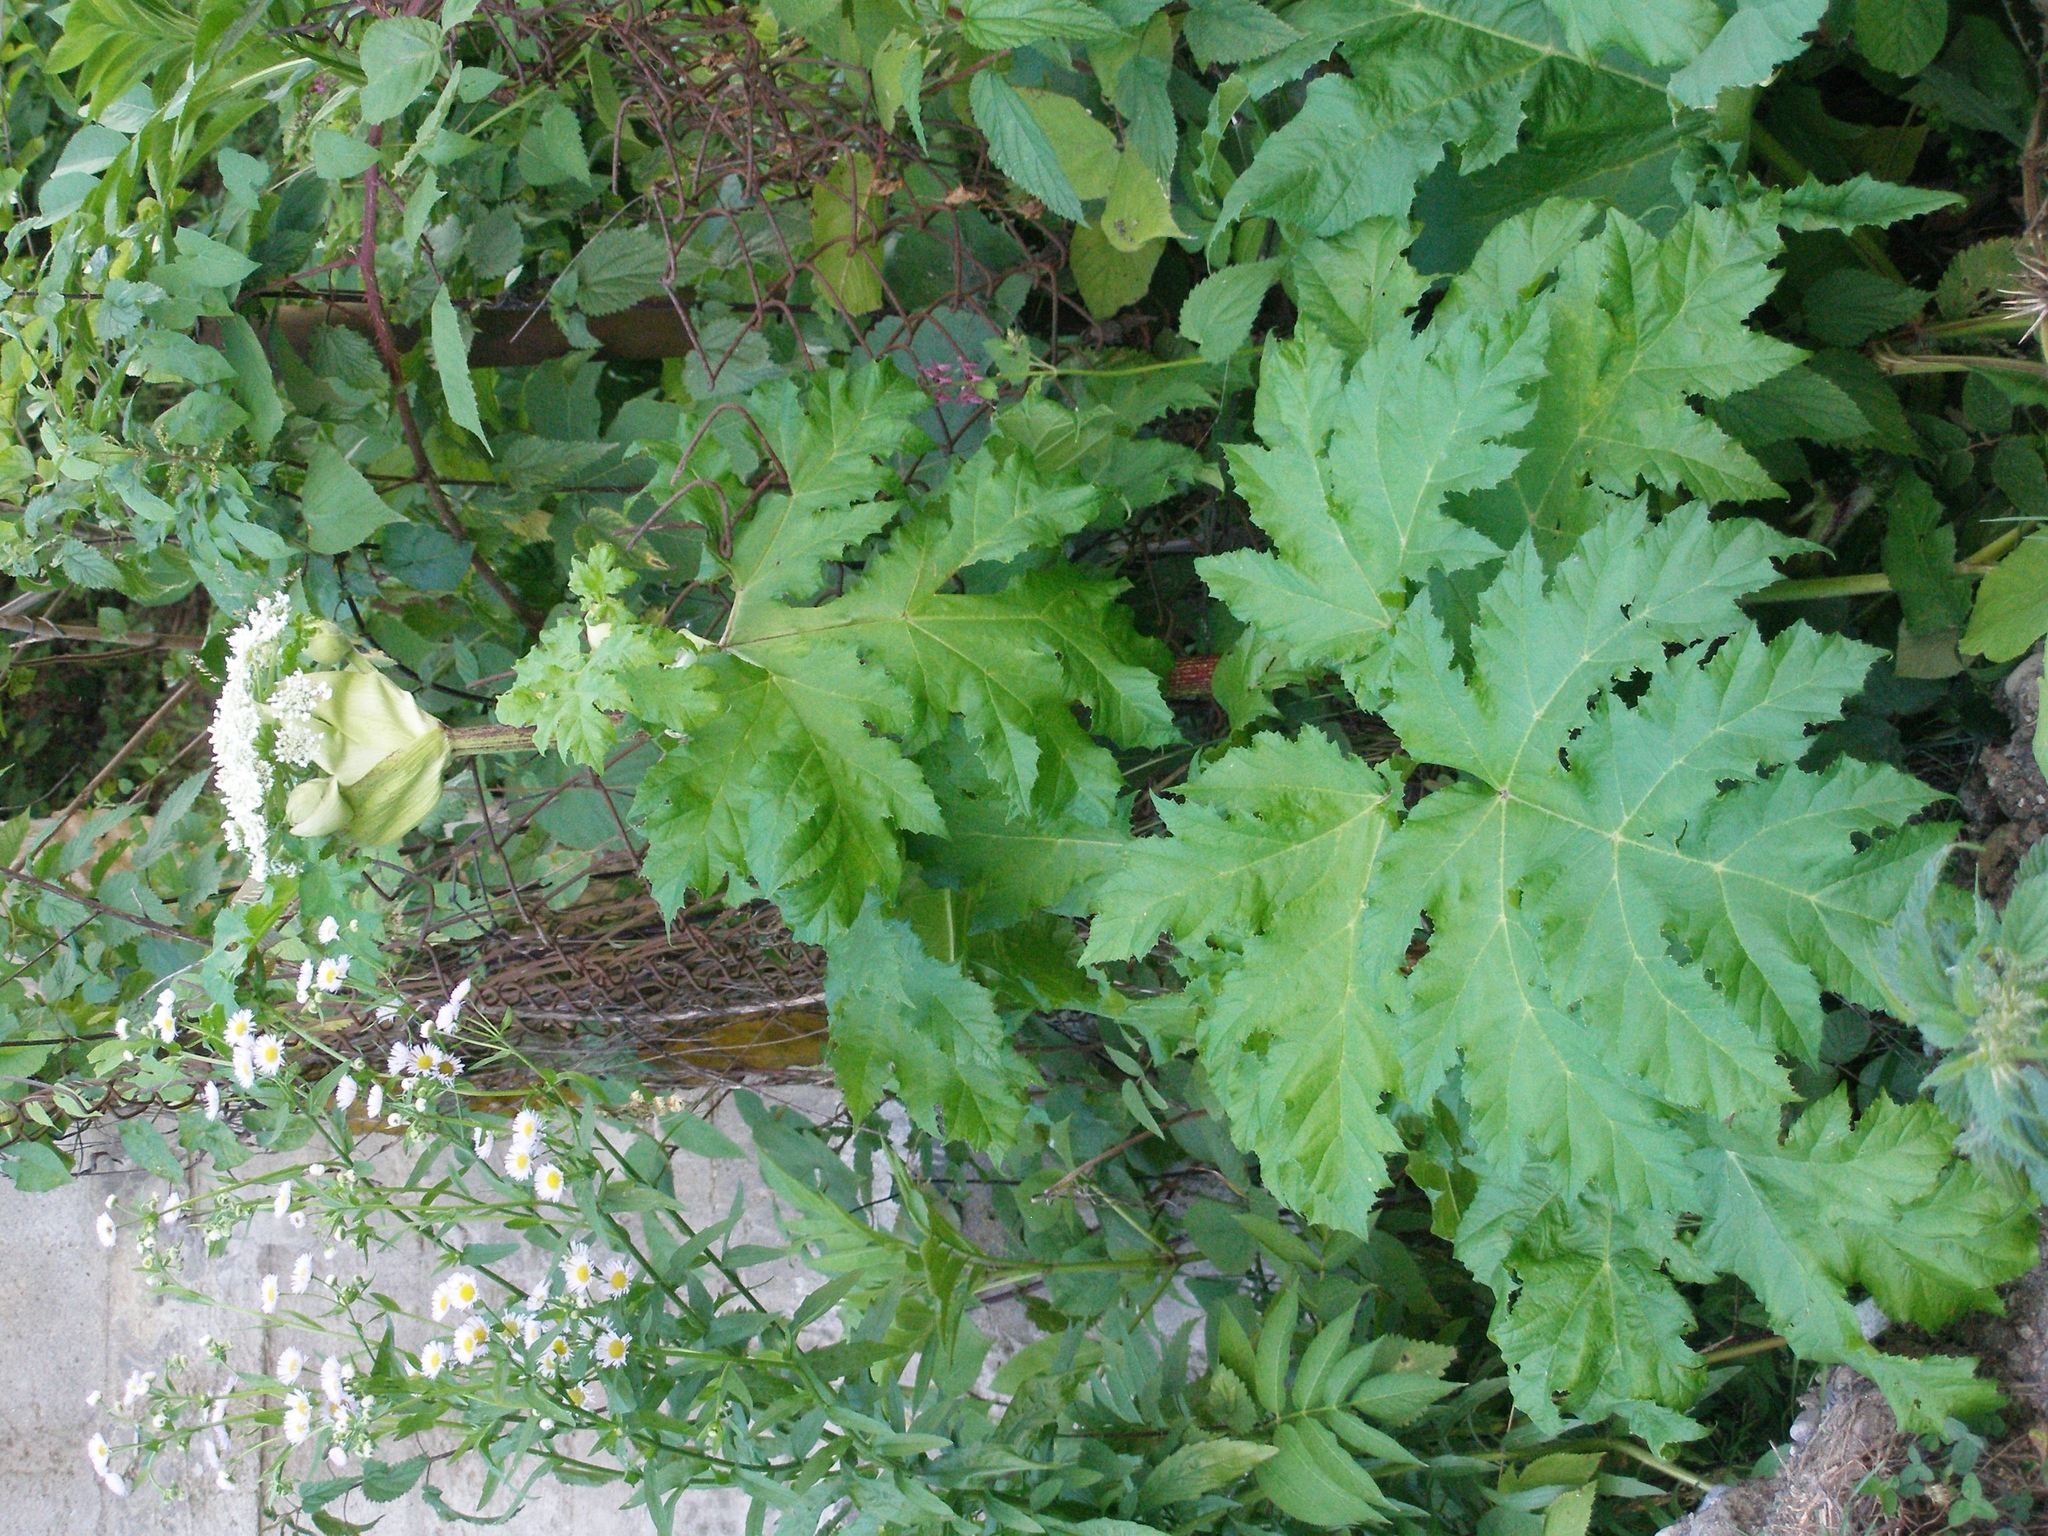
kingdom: Plantae
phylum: Tracheophyta
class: Magnoliopsida
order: Apiales
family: Apiaceae
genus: Heracleum
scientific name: Heracleum stevenii
